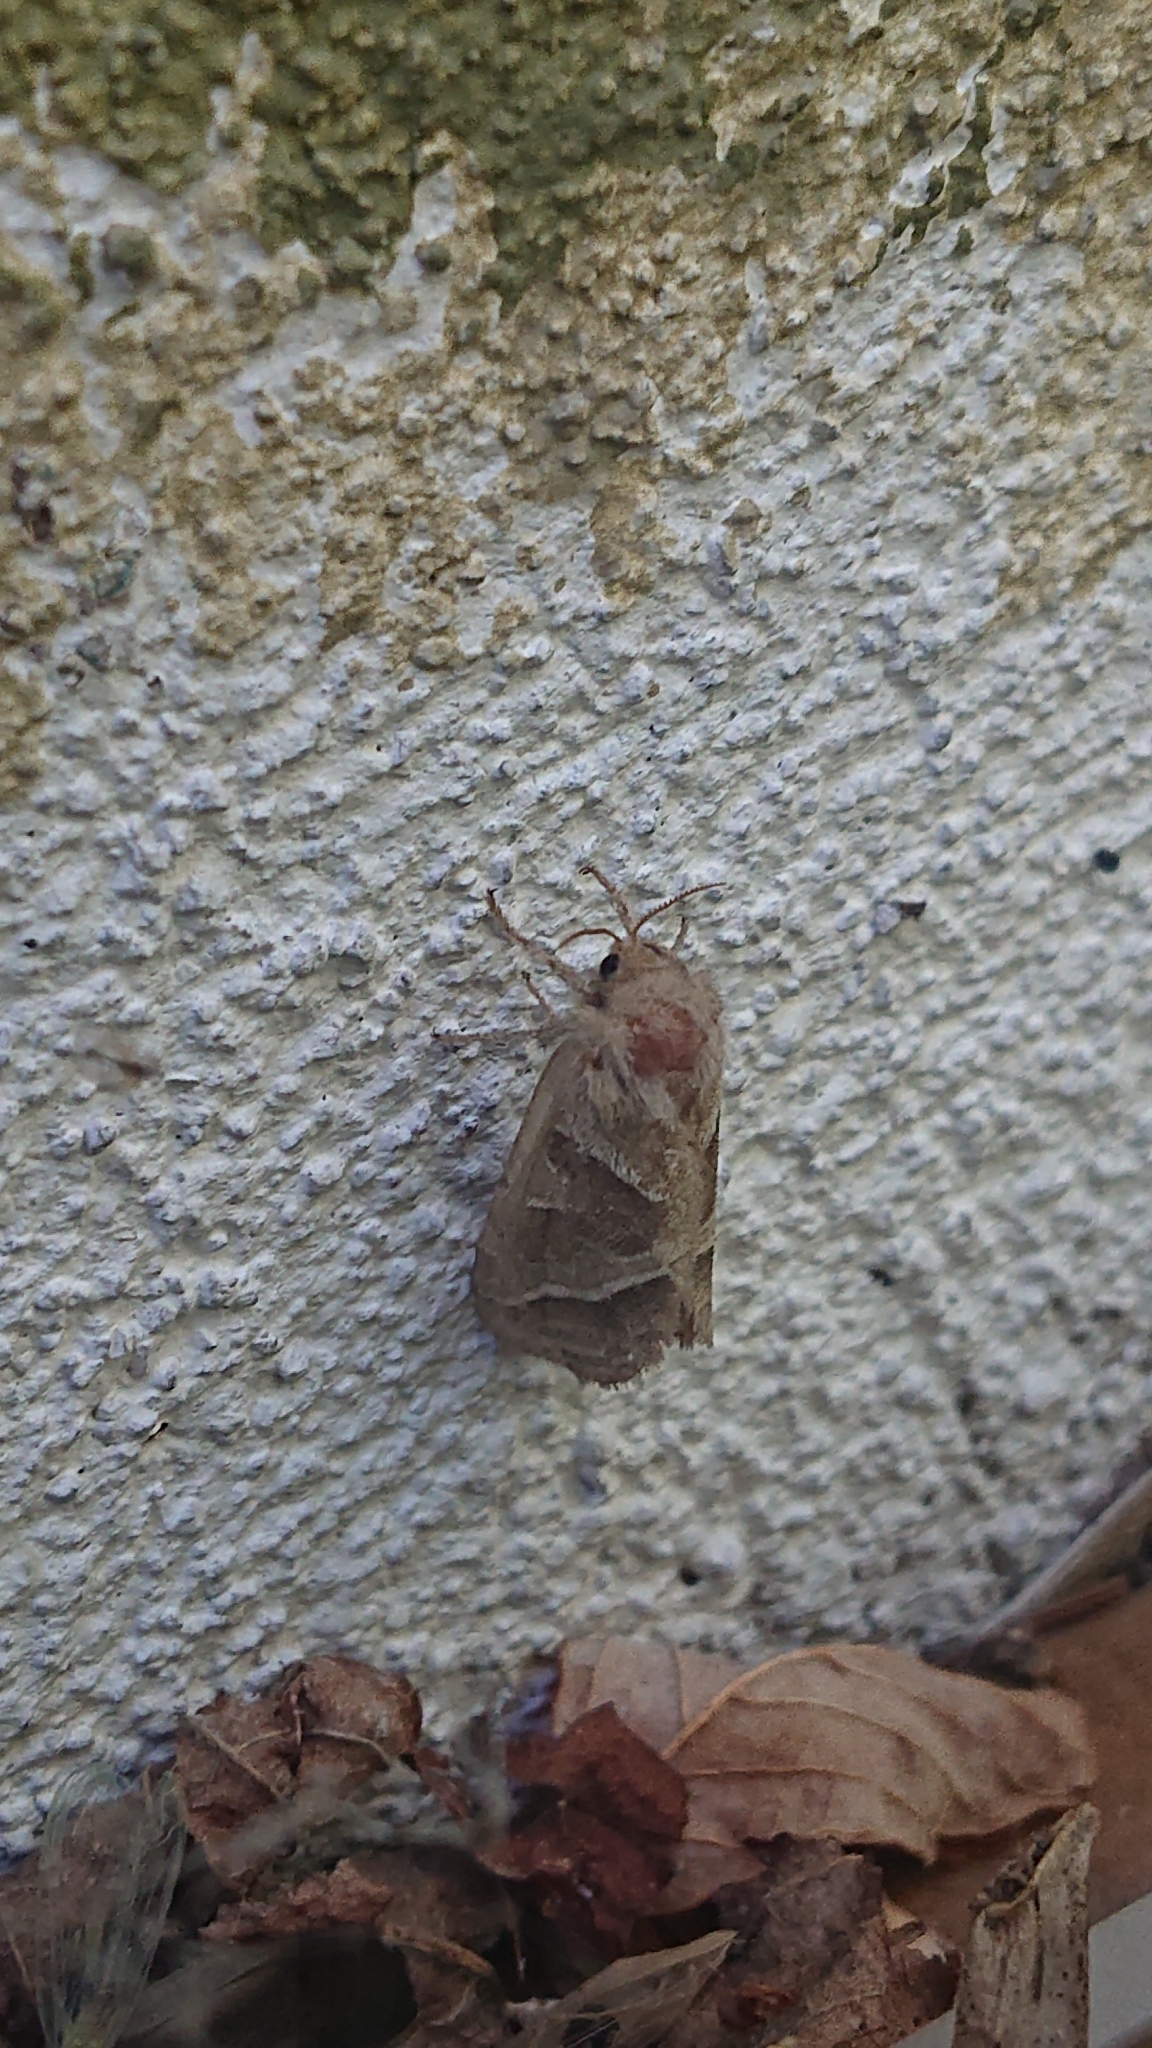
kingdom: Animalia
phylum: Arthropoda
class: Insecta
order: Lepidoptera
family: Hepialidae
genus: Triodia
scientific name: Triodia sylvina
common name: Orange swift
